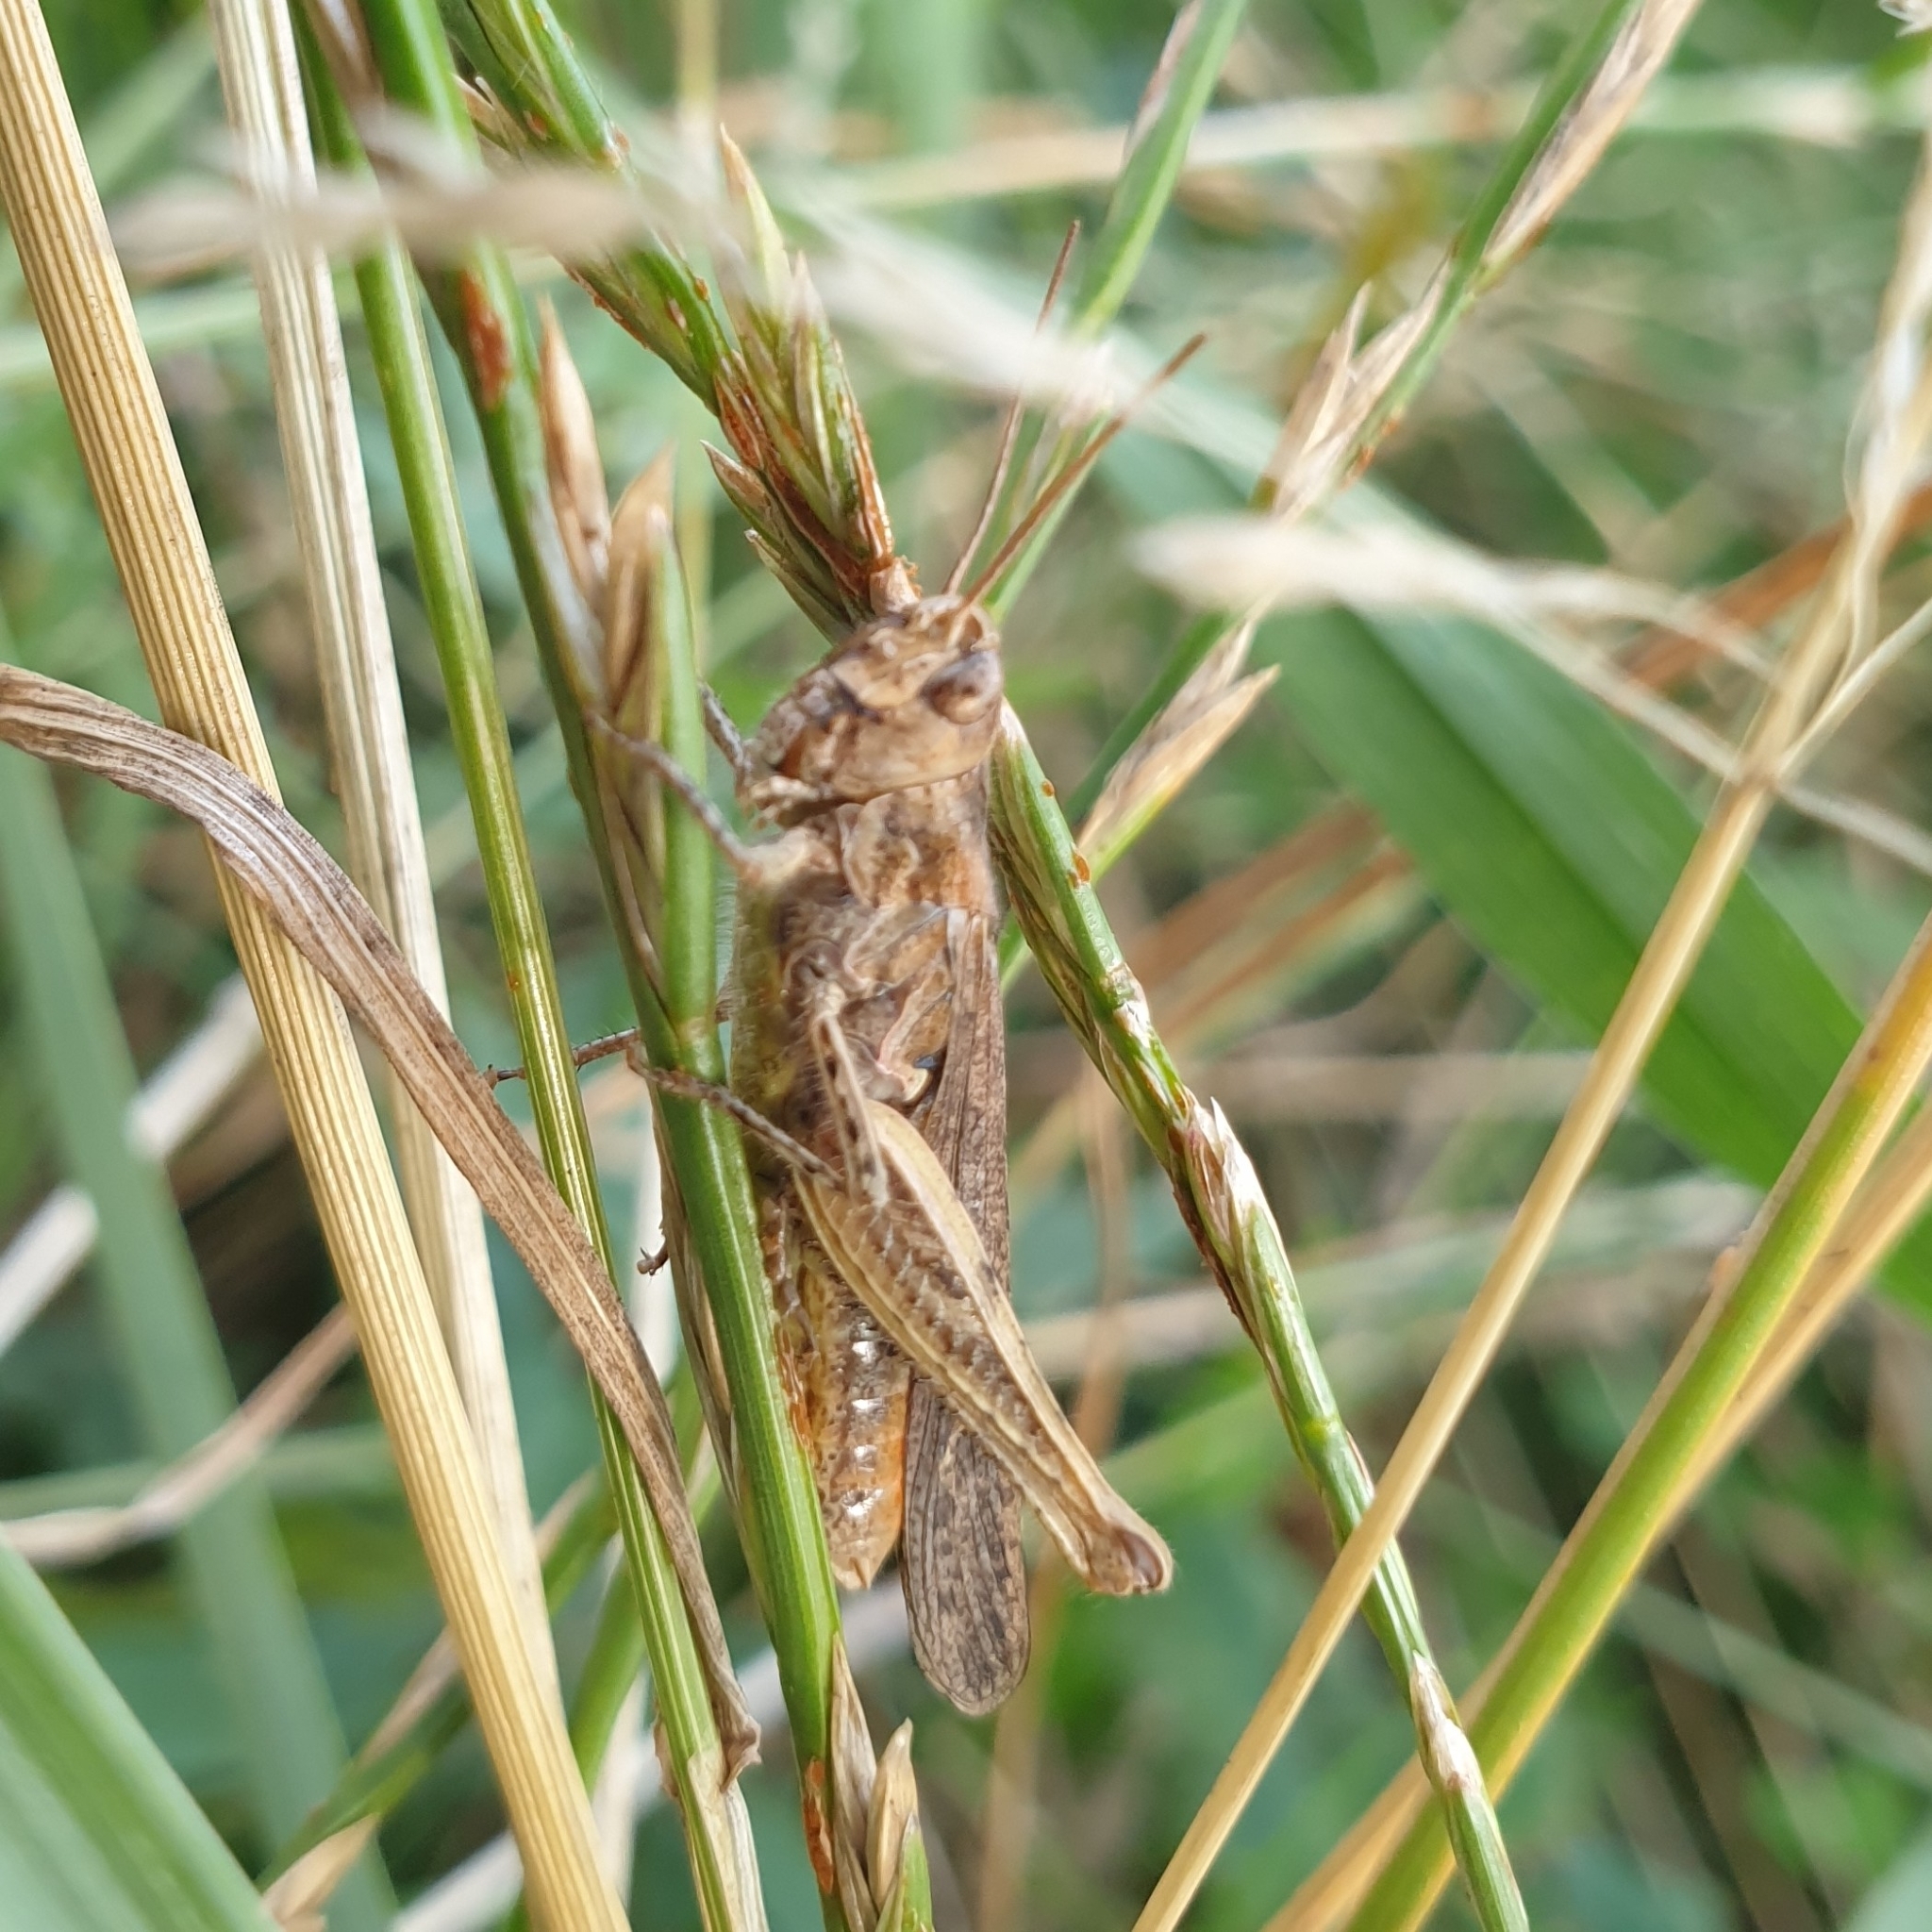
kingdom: Animalia
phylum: Arthropoda
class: Insecta
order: Orthoptera
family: Acrididae
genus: Chorthippus
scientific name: Chorthippus brunneus
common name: Field grasshopper
